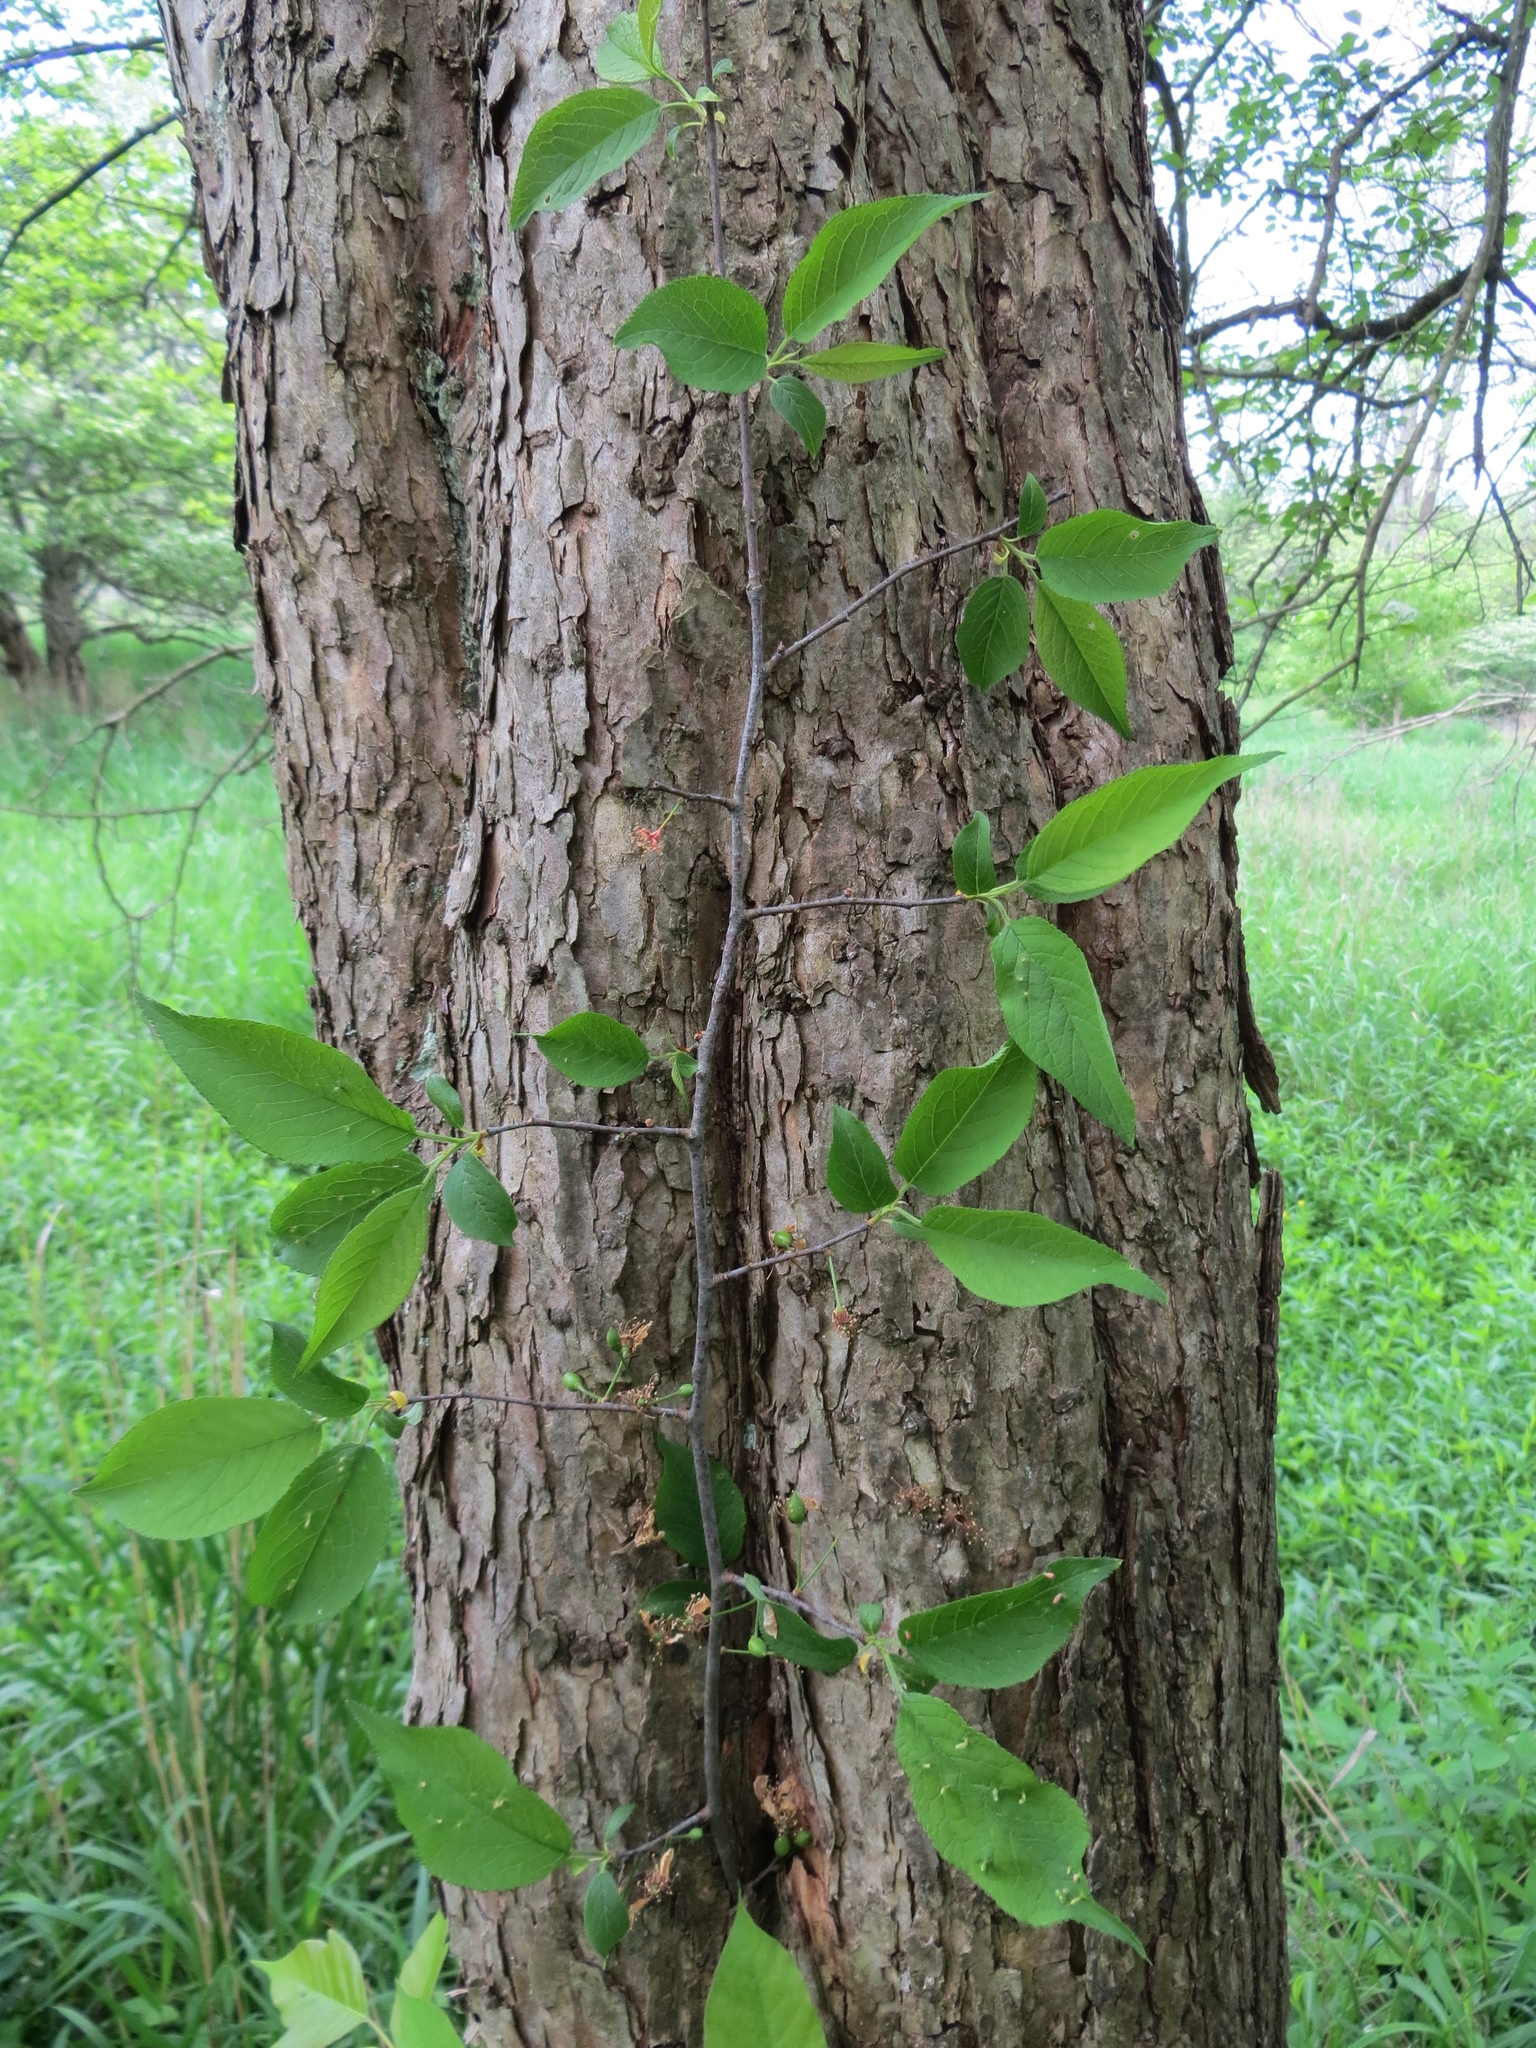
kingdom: Plantae
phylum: Tracheophyta
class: Magnoliopsida
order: Rosales
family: Rosaceae
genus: Prunus
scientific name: Prunus nigra
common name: Black plum
